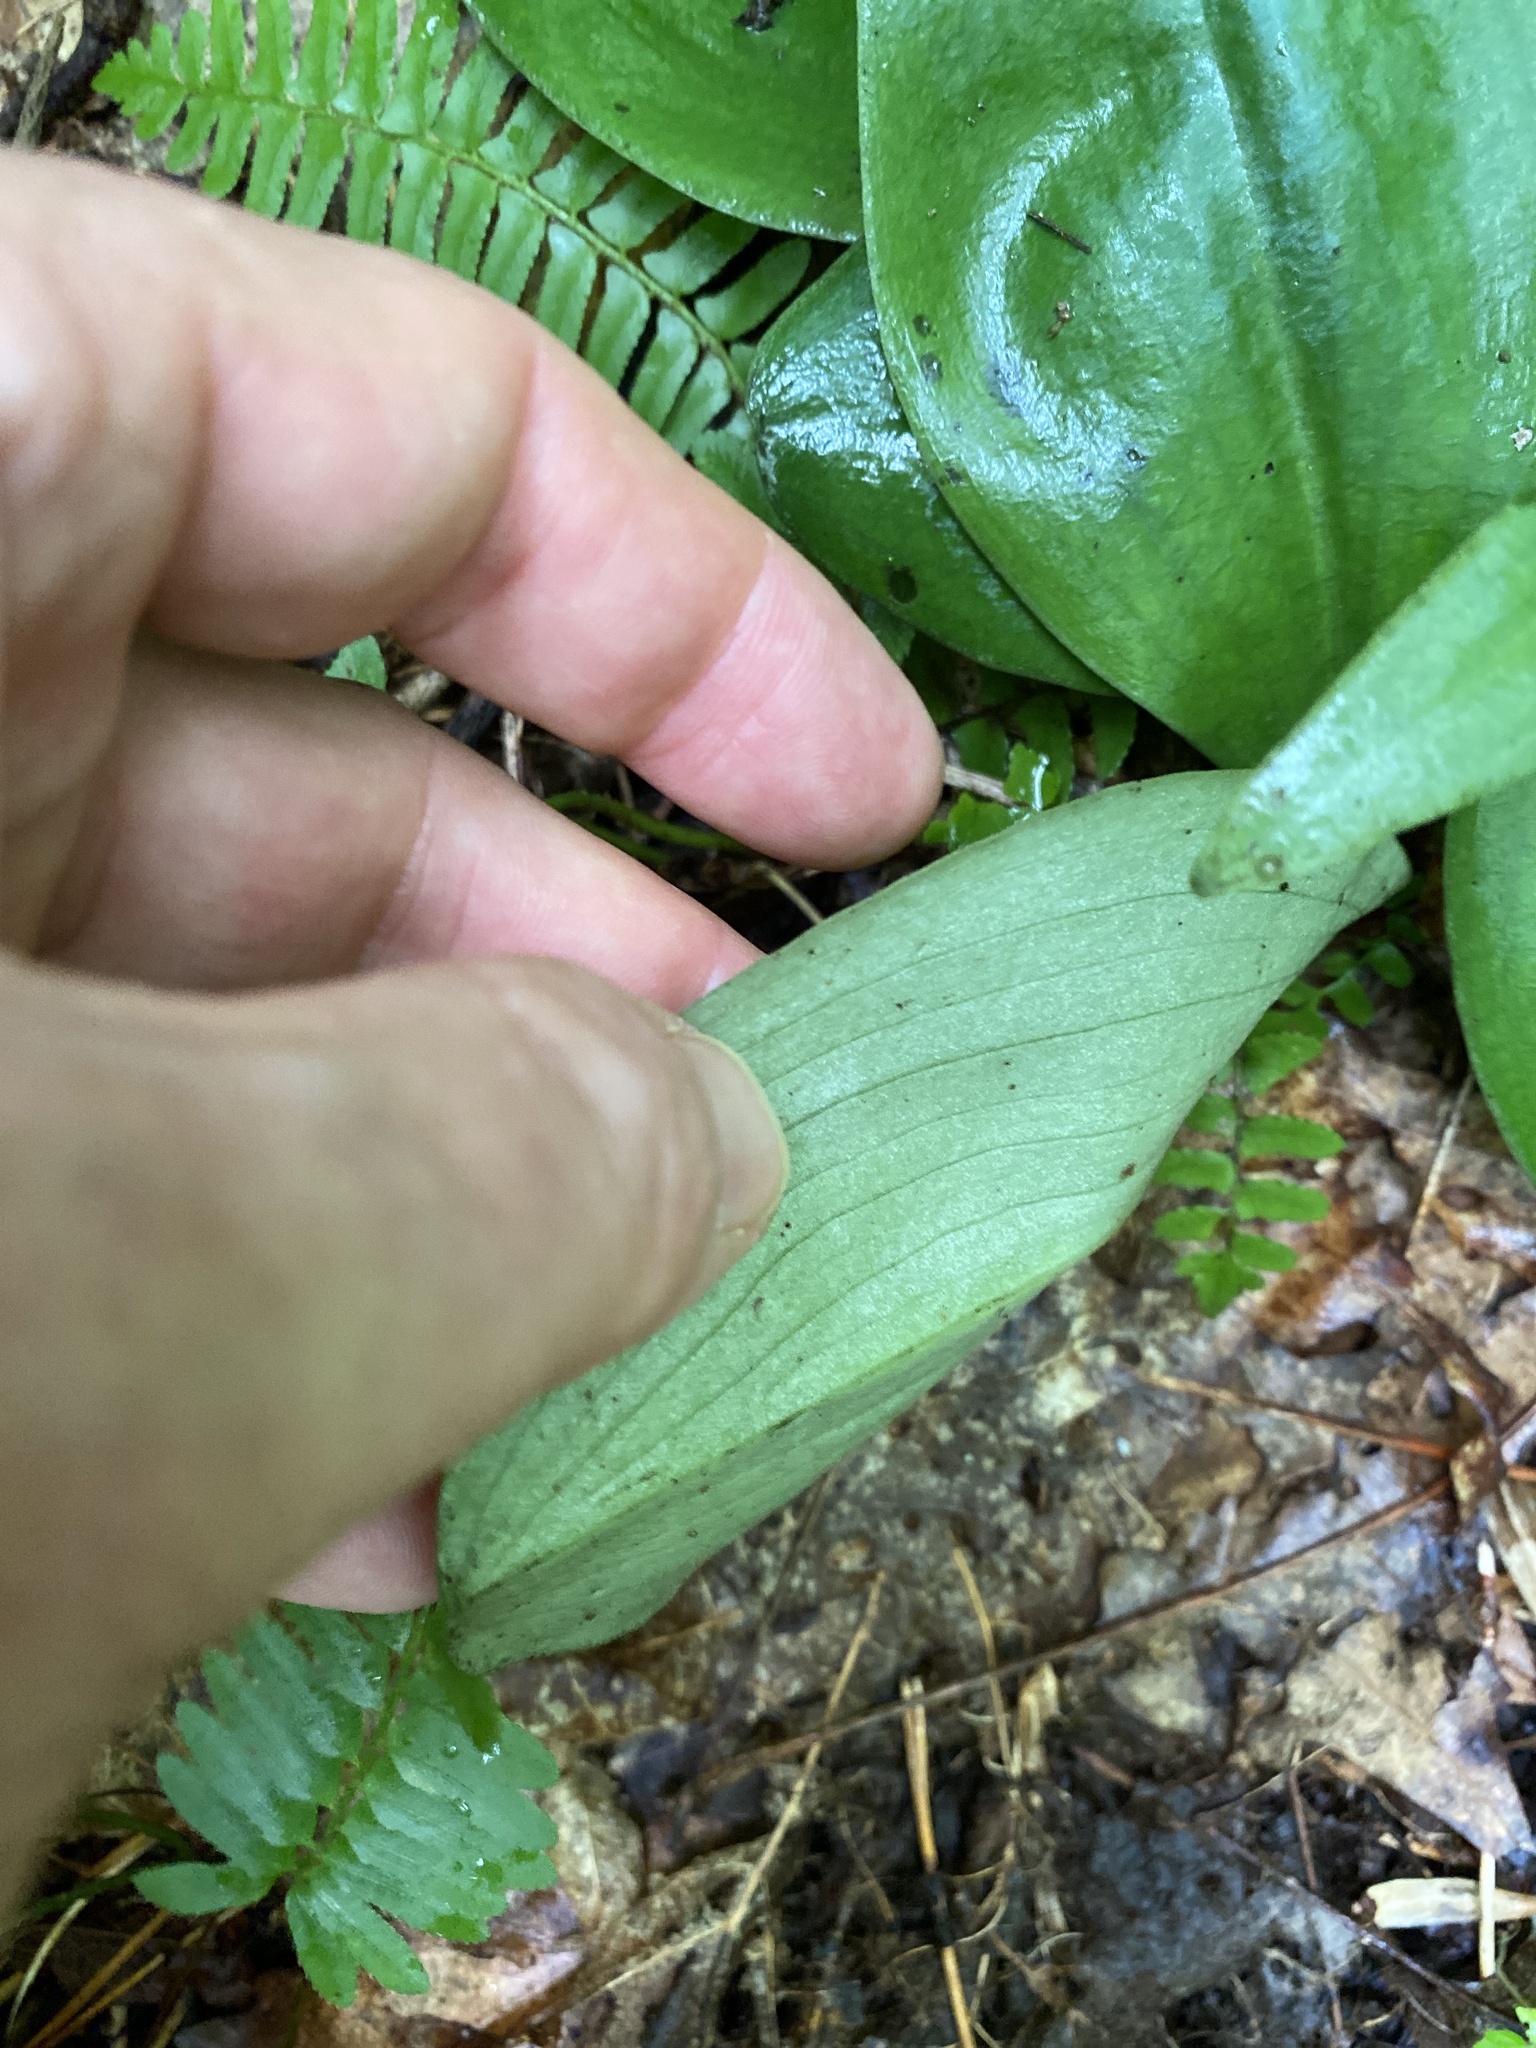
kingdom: Plantae
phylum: Tracheophyta
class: Liliopsida
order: Asparagales
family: Orchidaceae
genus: Galearis
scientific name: Galearis spectabilis
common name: Purple-hooded orchis
